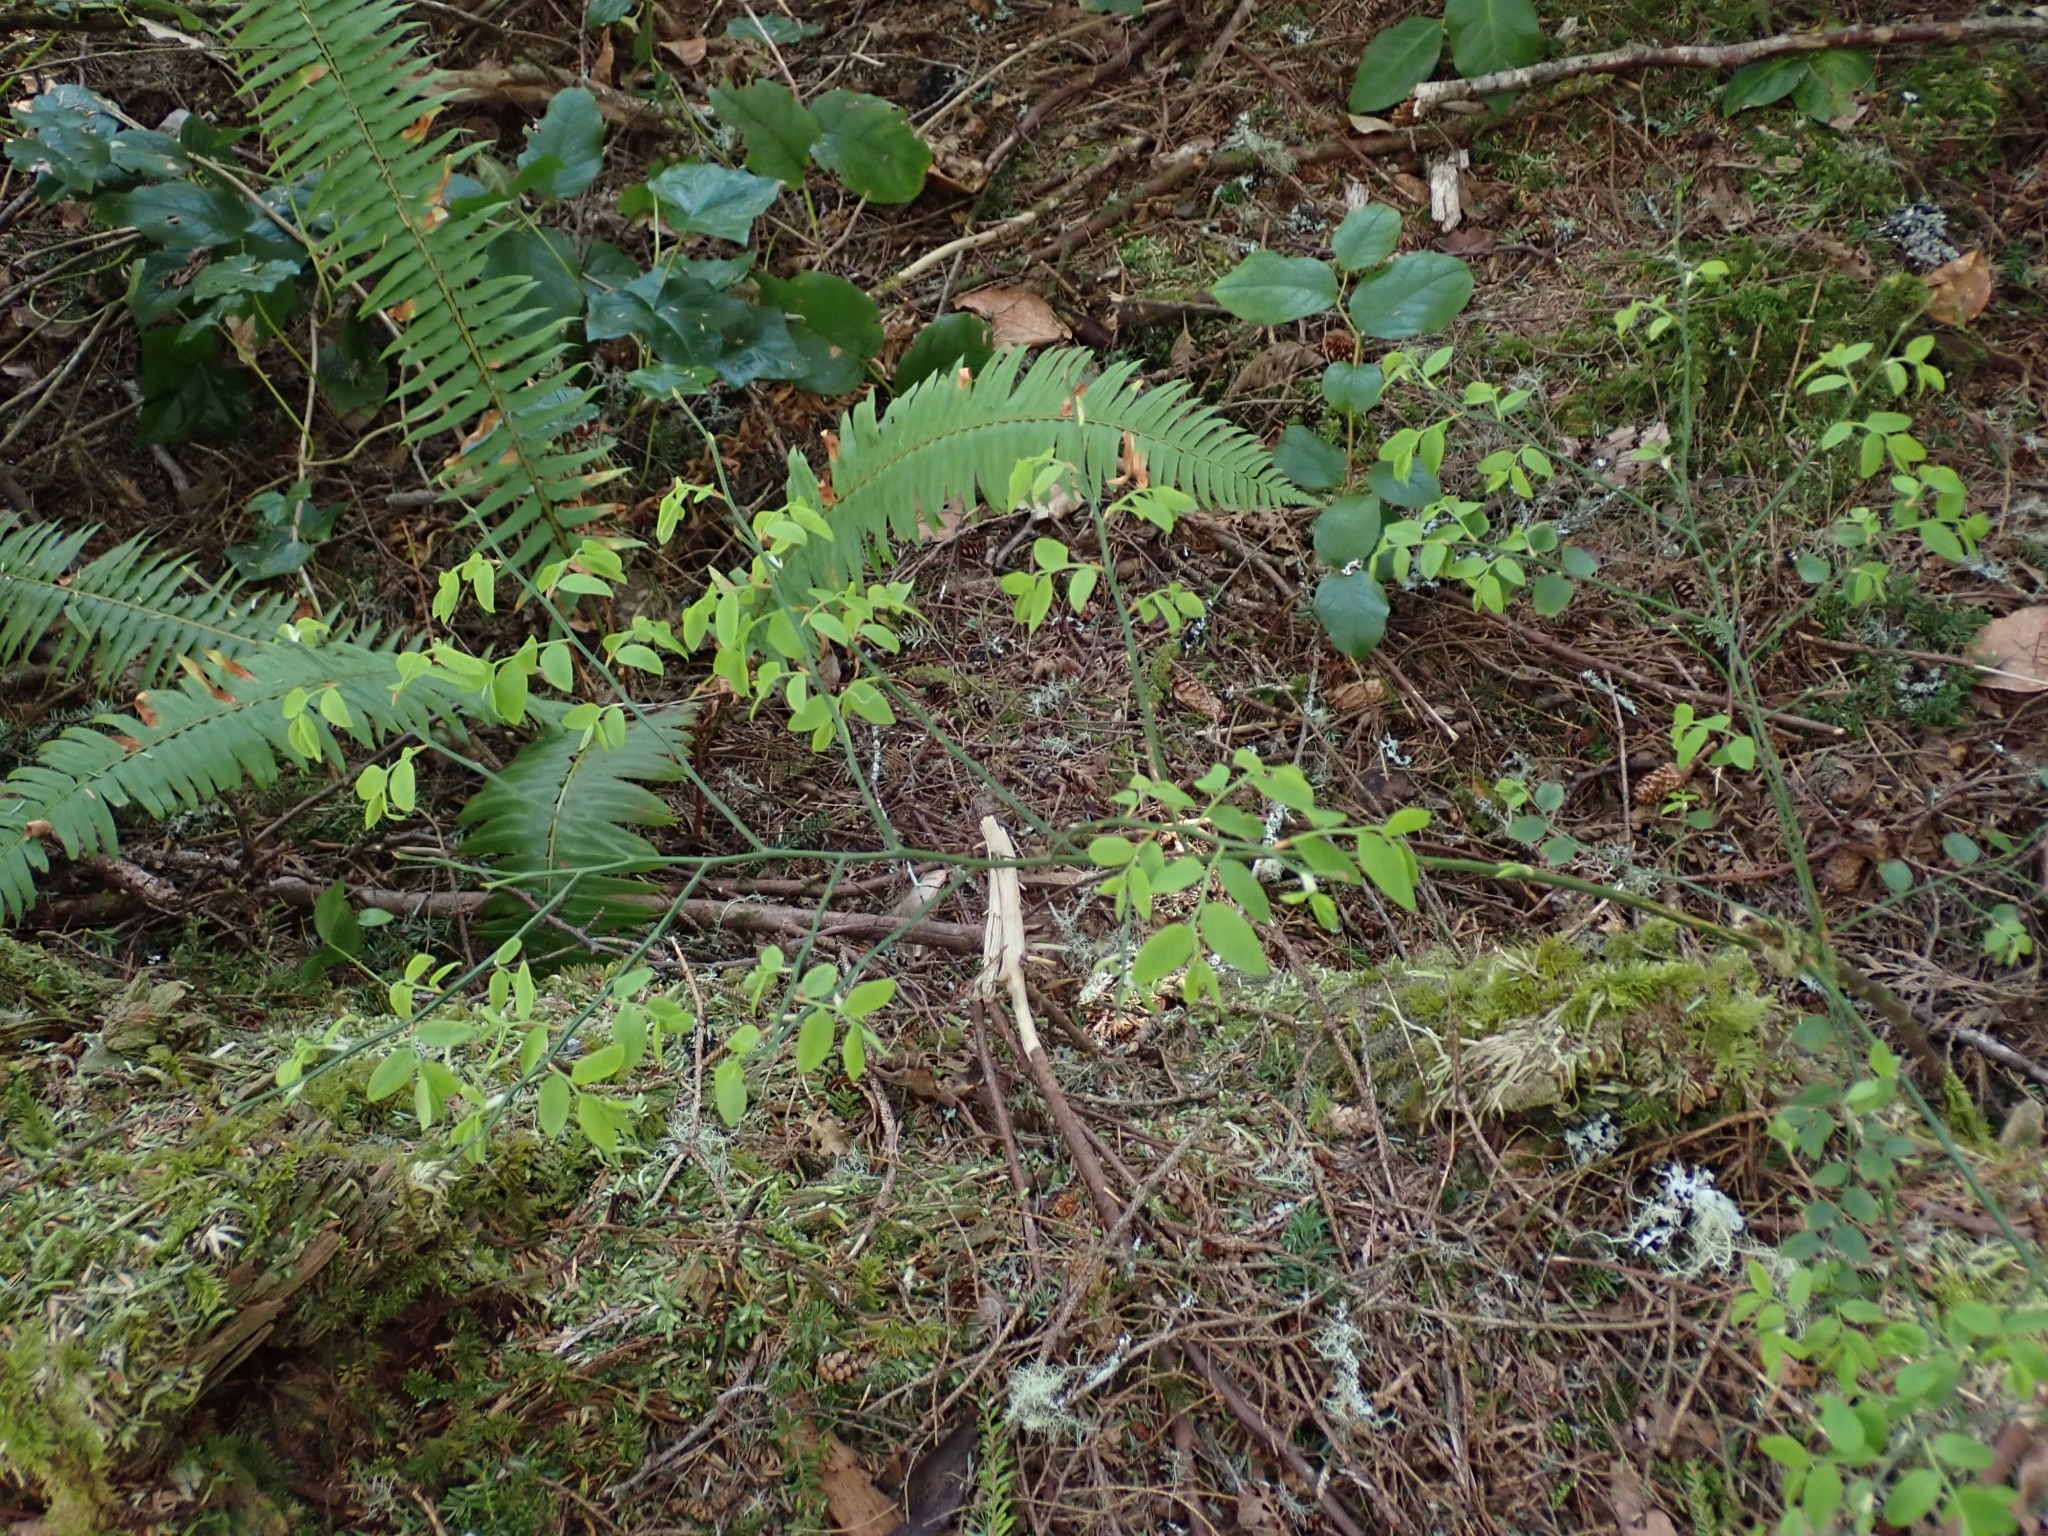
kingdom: Plantae
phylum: Tracheophyta
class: Magnoliopsida
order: Ericales
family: Ericaceae
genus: Vaccinium
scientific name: Vaccinium parvifolium
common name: Red-huckleberry
